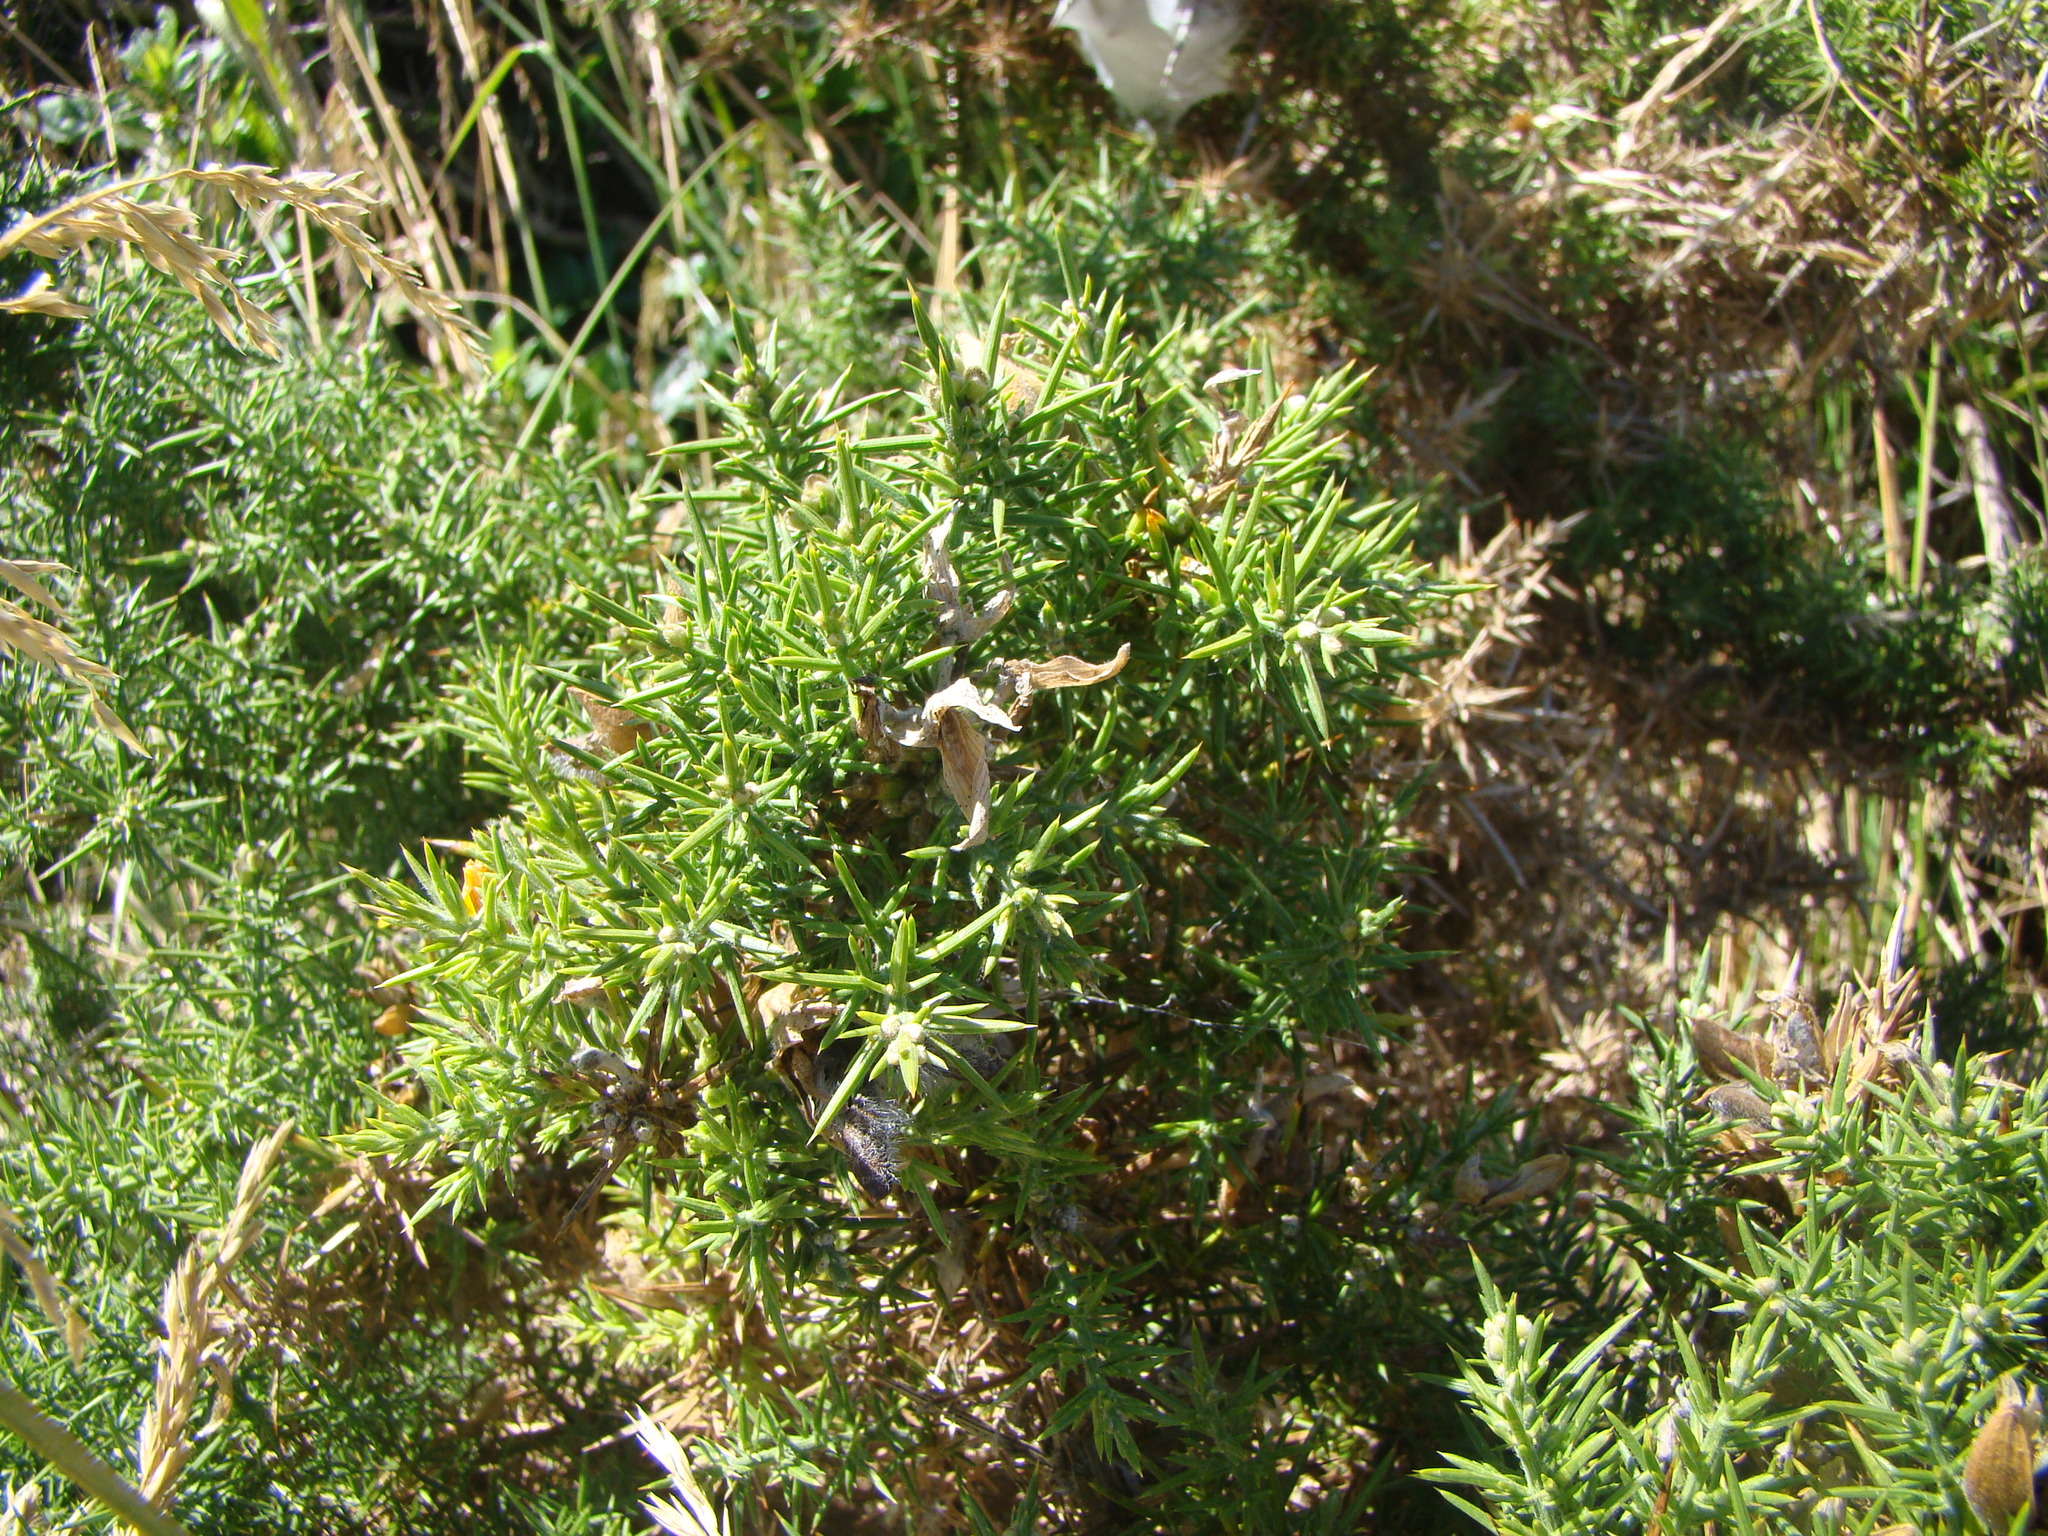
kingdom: Plantae
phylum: Tracheophyta
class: Magnoliopsida
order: Fabales
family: Fabaceae
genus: Ulex
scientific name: Ulex europaeus
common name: Common gorse
